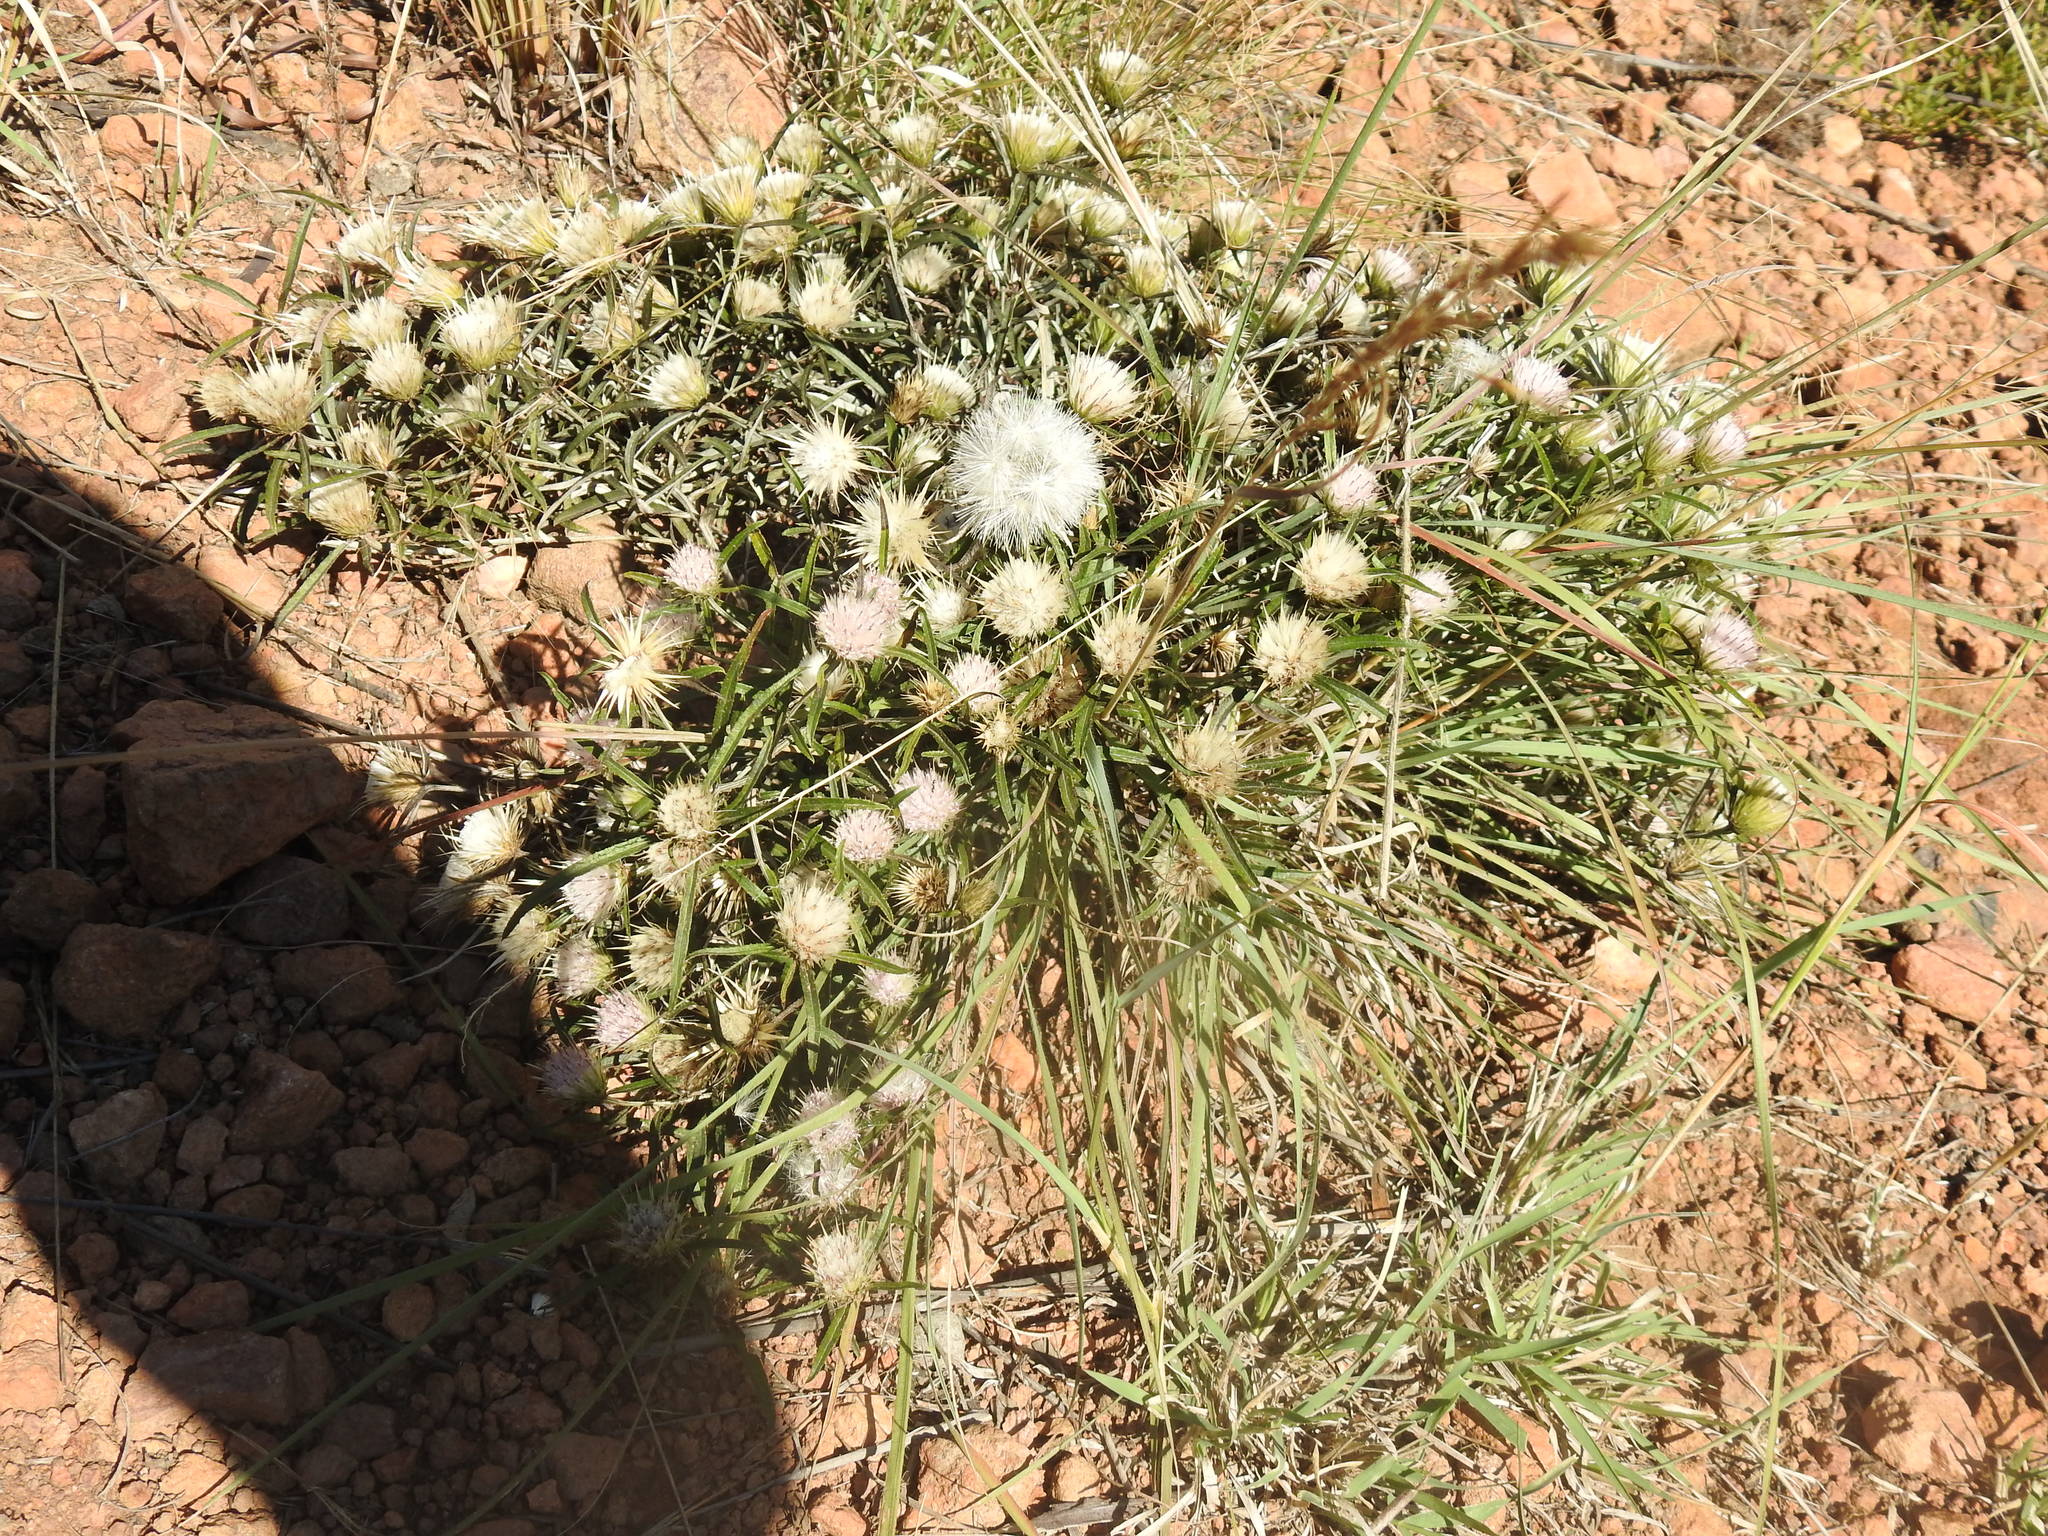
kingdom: Plantae
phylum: Tracheophyta
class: Magnoliopsida
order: Asterales
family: Asteraceae
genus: Dicoma
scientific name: Dicoma anomala
